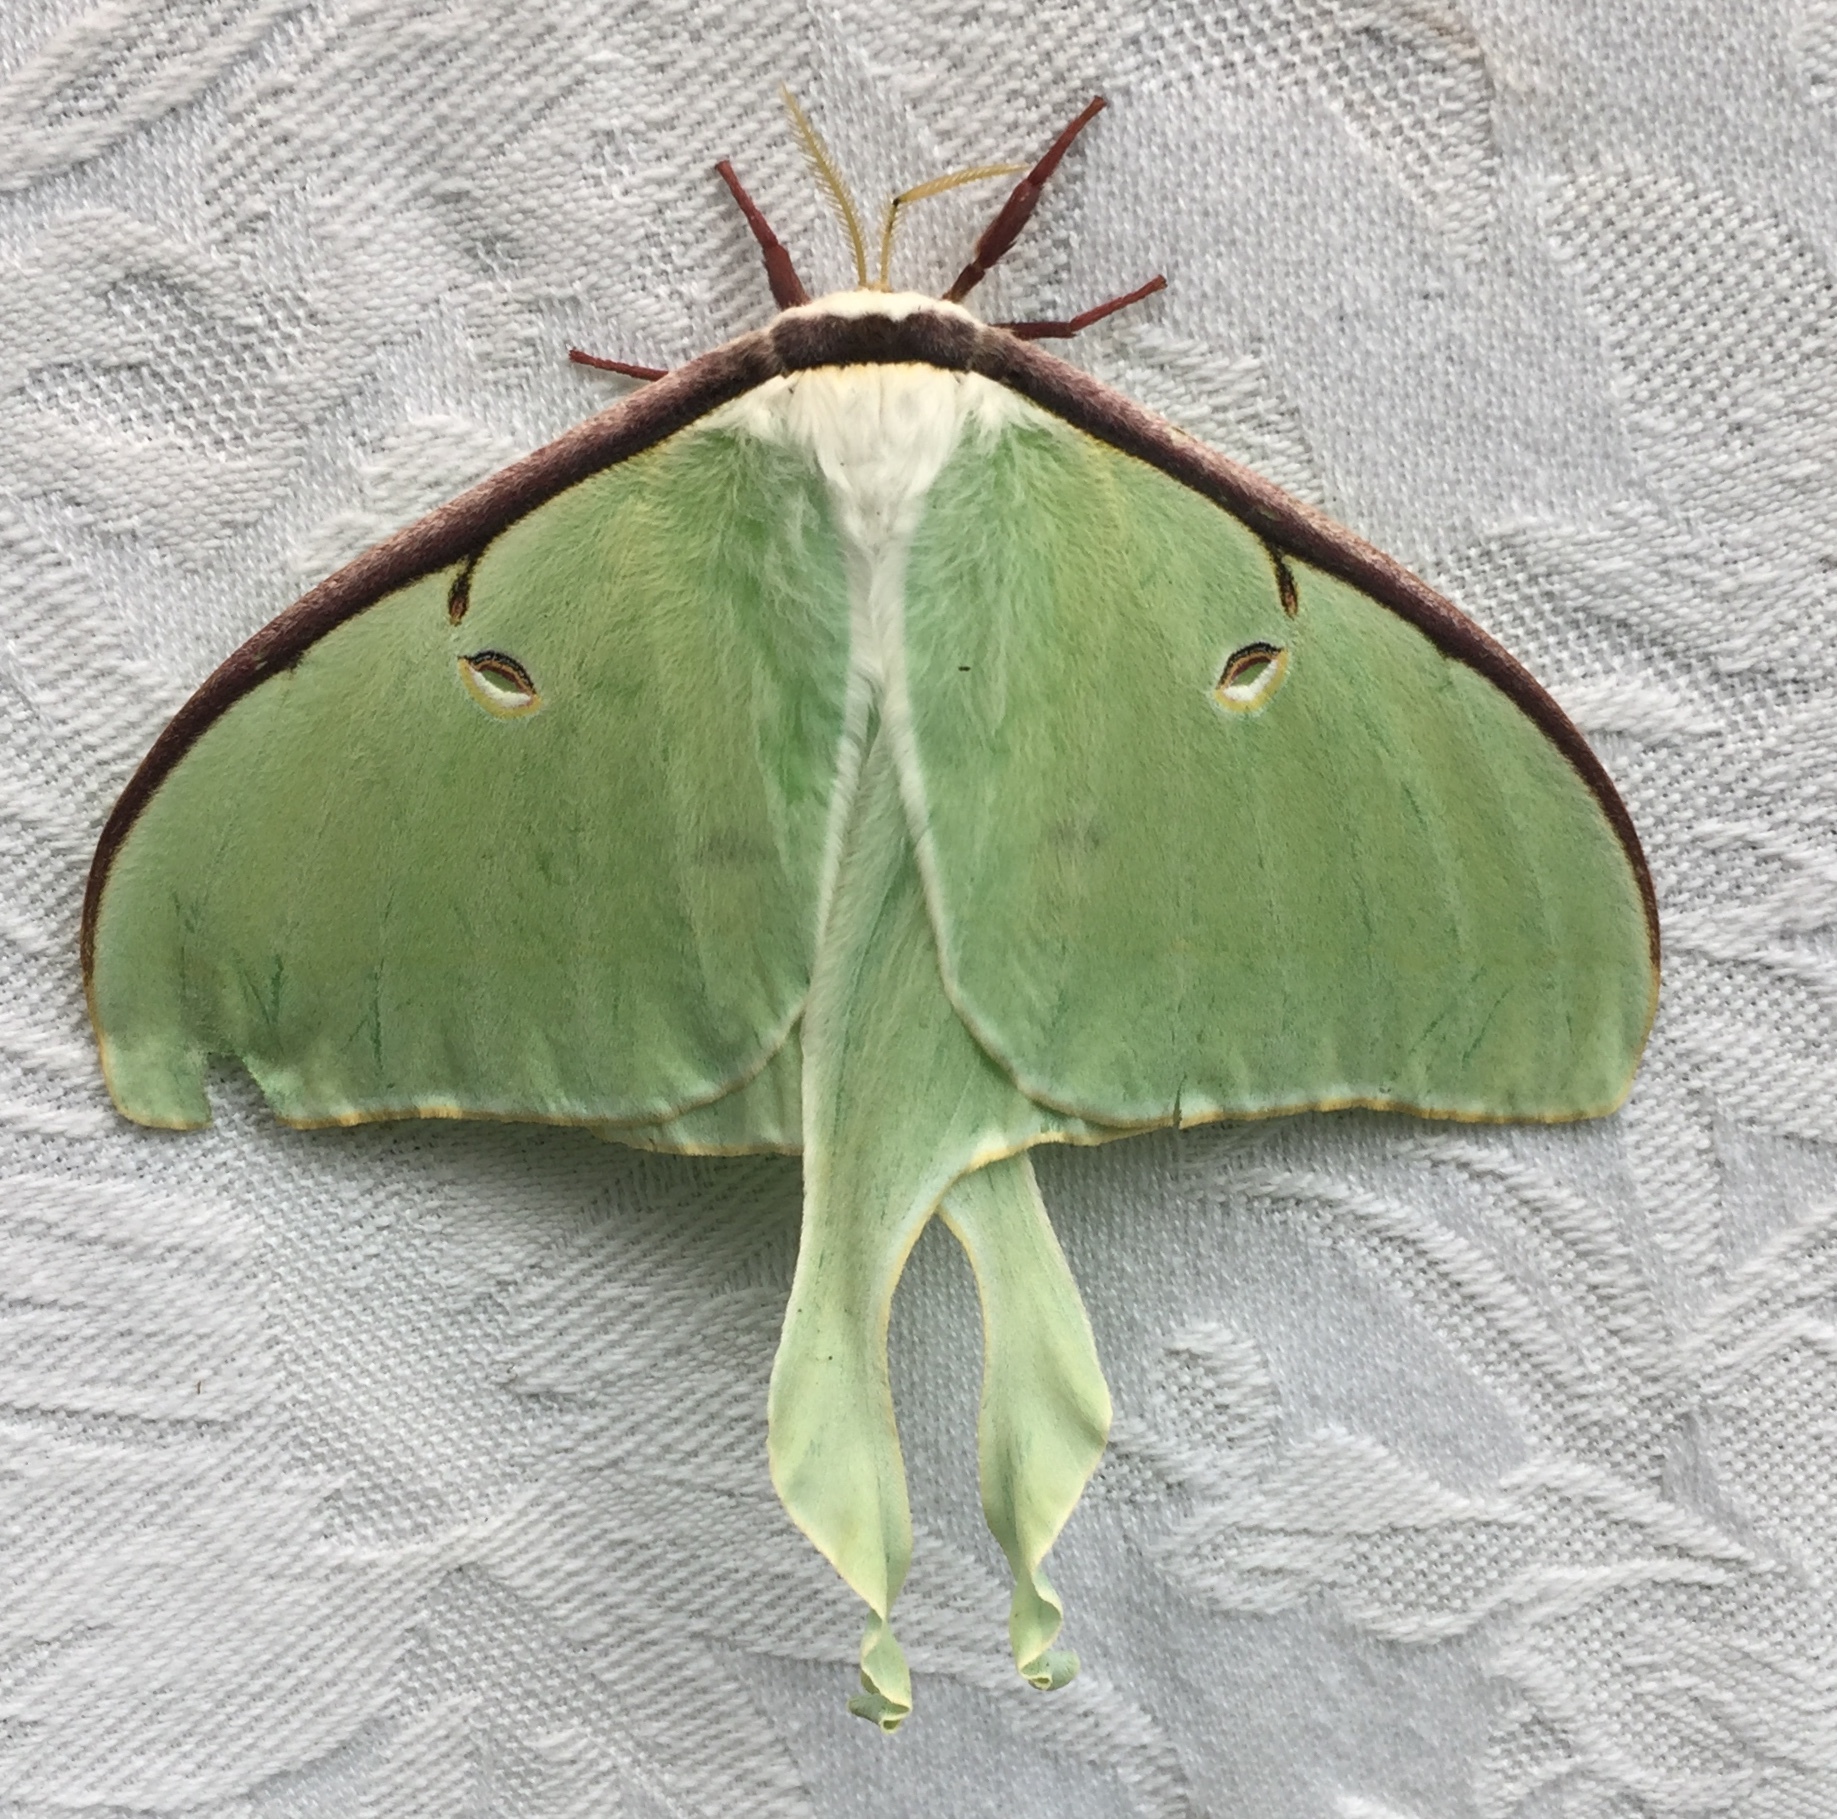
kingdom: Animalia
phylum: Arthropoda
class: Insecta
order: Lepidoptera
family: Saturniidae
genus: Actias
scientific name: Actias luna
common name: Luna moth
